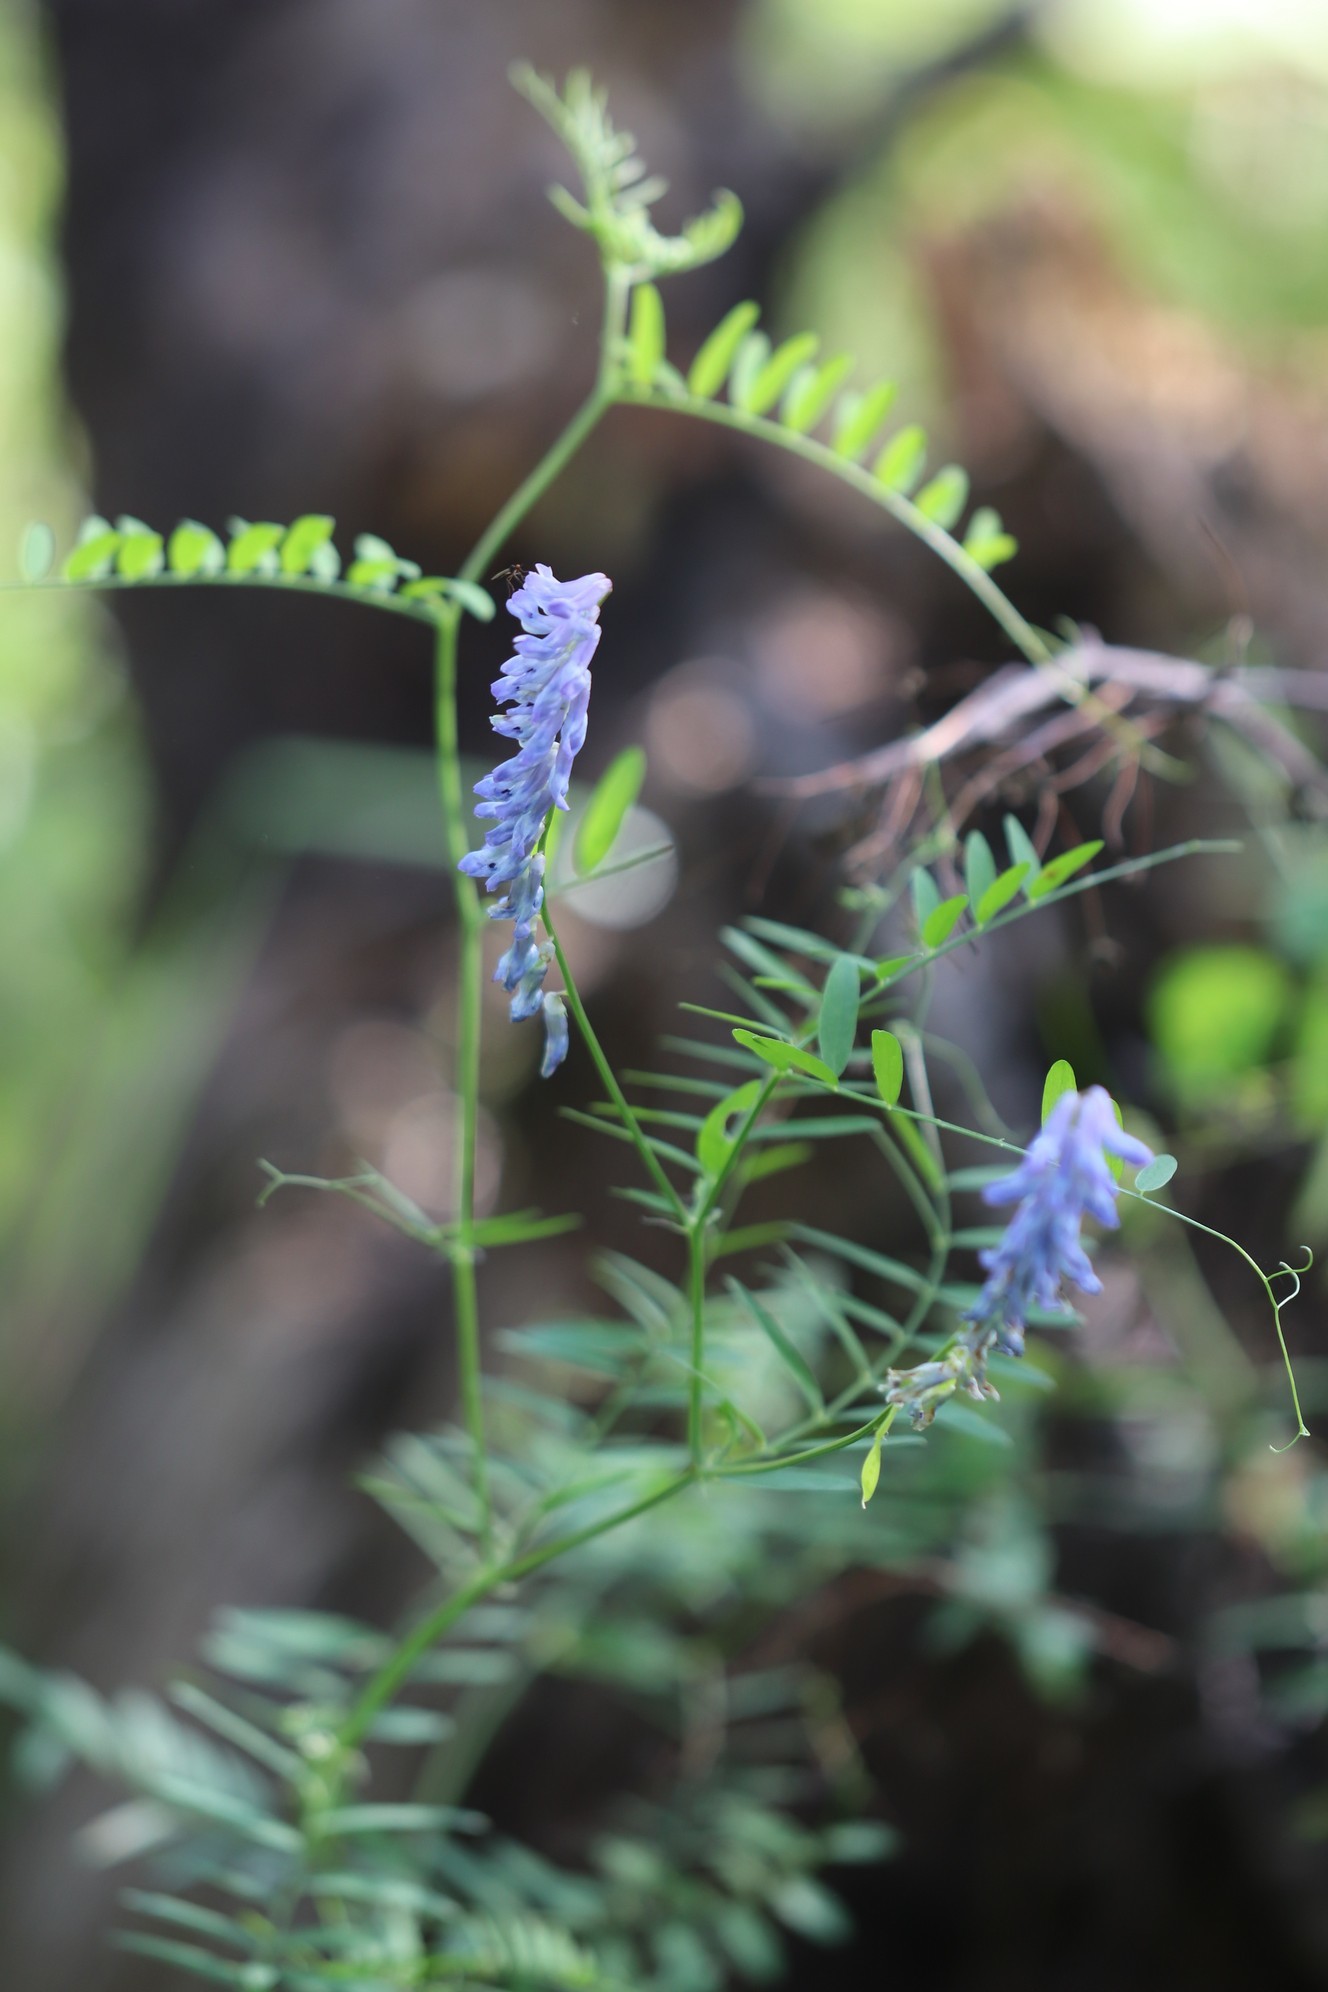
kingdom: Plantae
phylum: Tracheophyta
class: Magnoliopsida
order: Fabales
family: Fabaceae
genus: Vicia
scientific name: Vicia cracca
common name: Bird vetch
